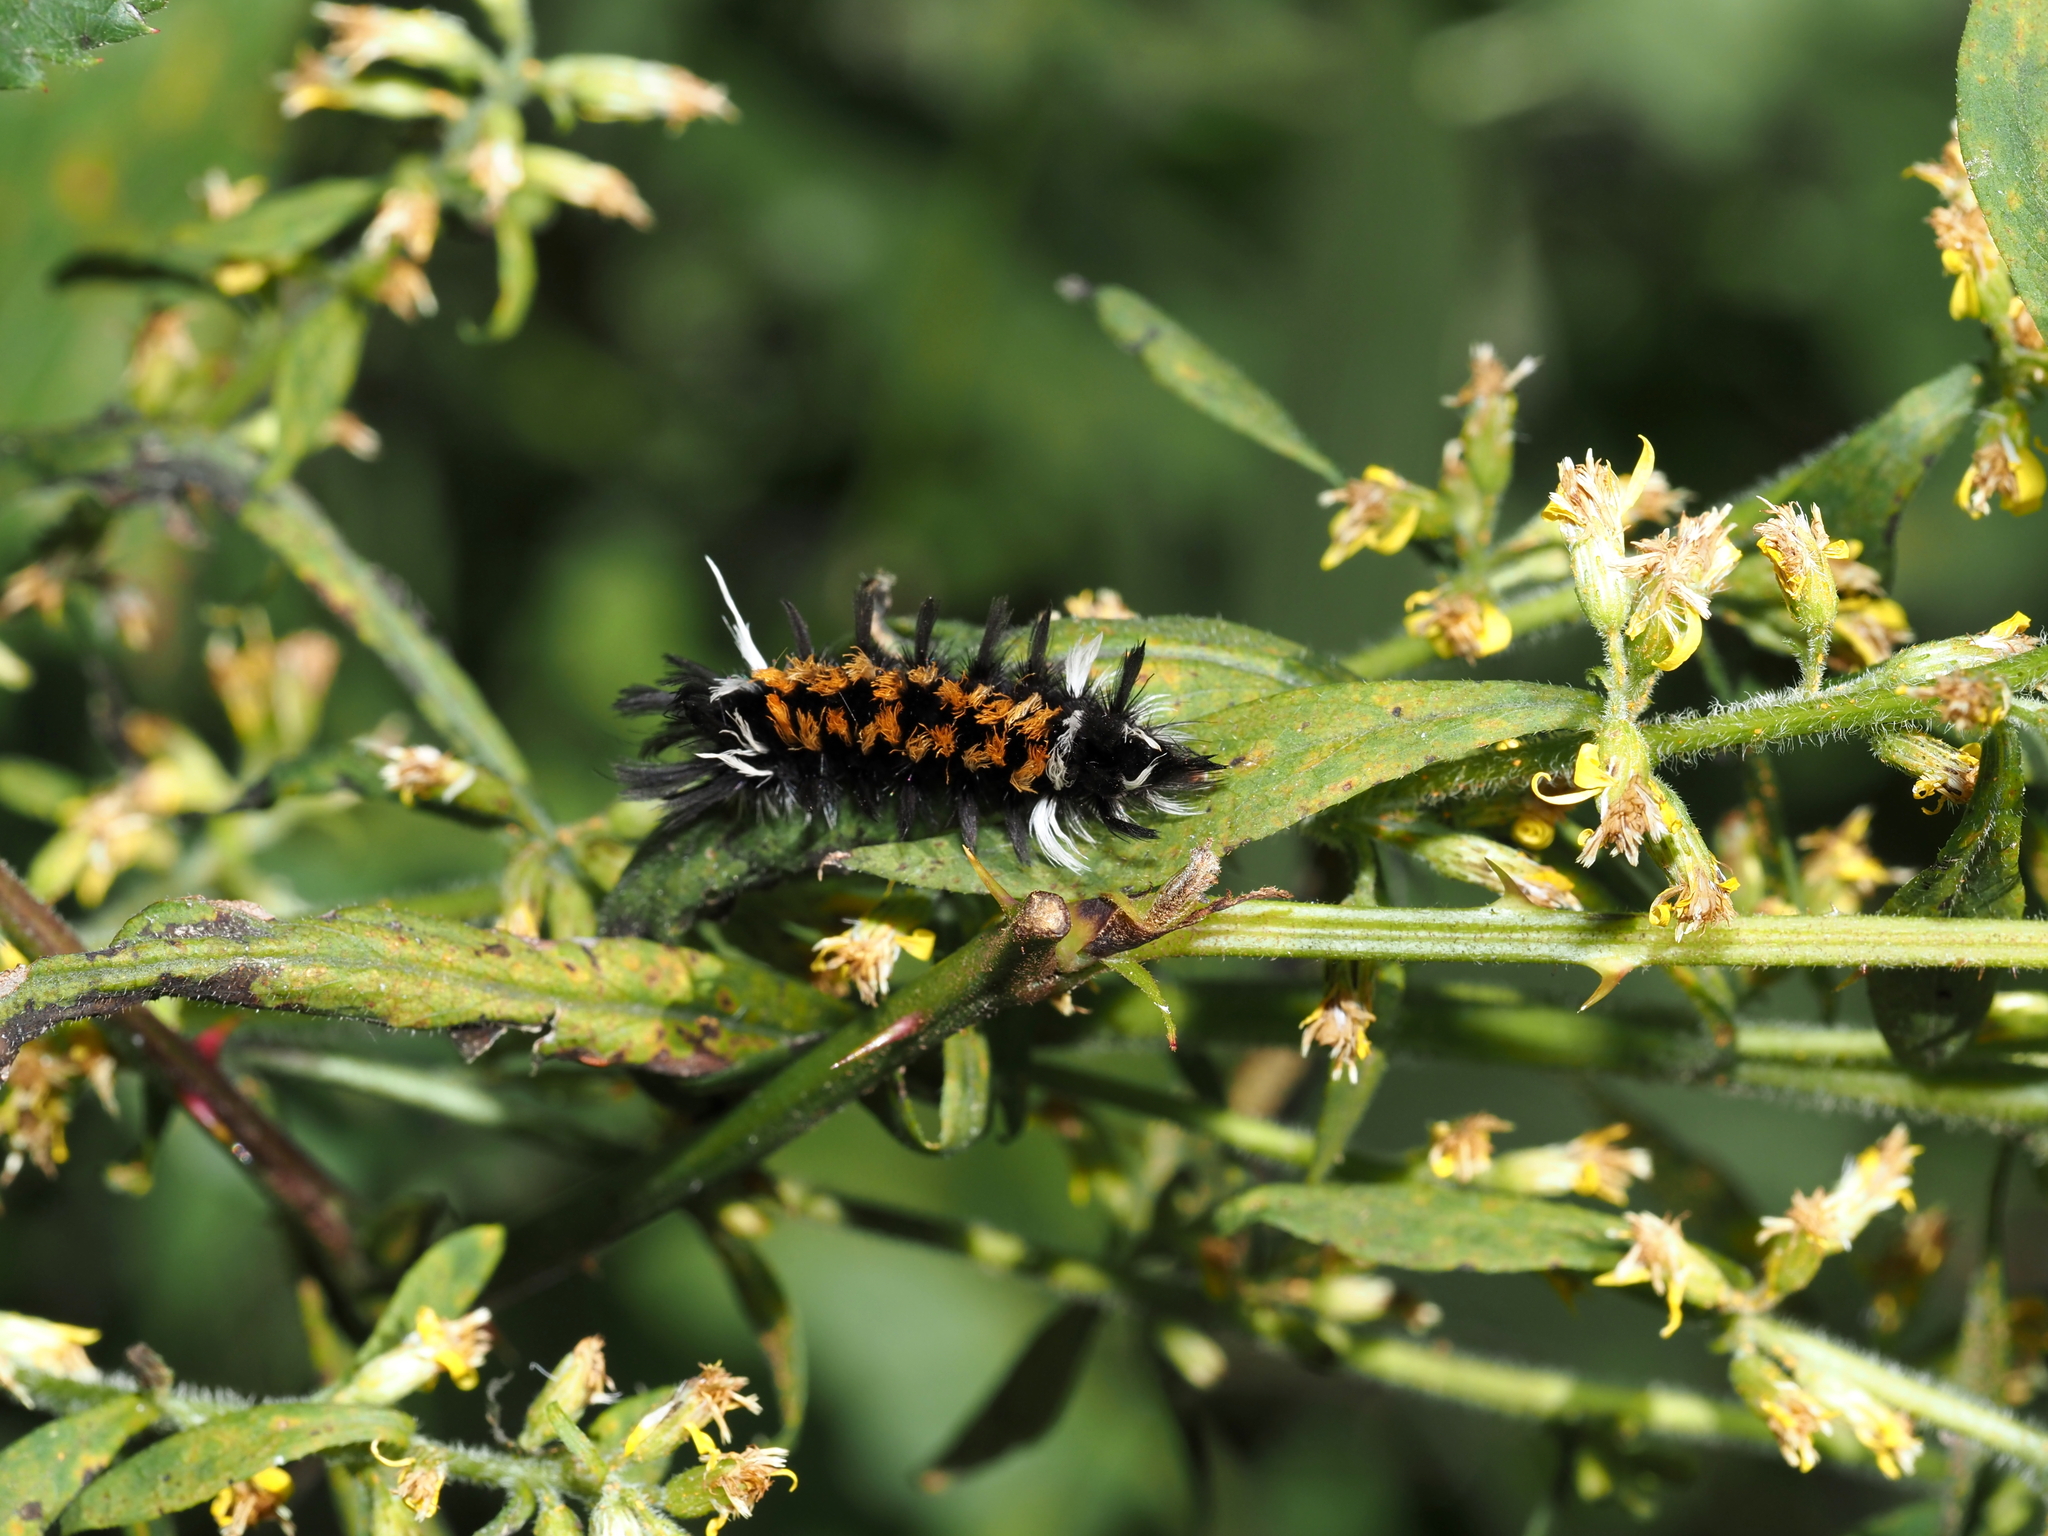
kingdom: Animalia
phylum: Arthropoda
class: Insecta
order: Lepidoptera
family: Erebidae
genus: Euchaetes
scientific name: Euchaetes egle
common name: Milkweed tussock moth
